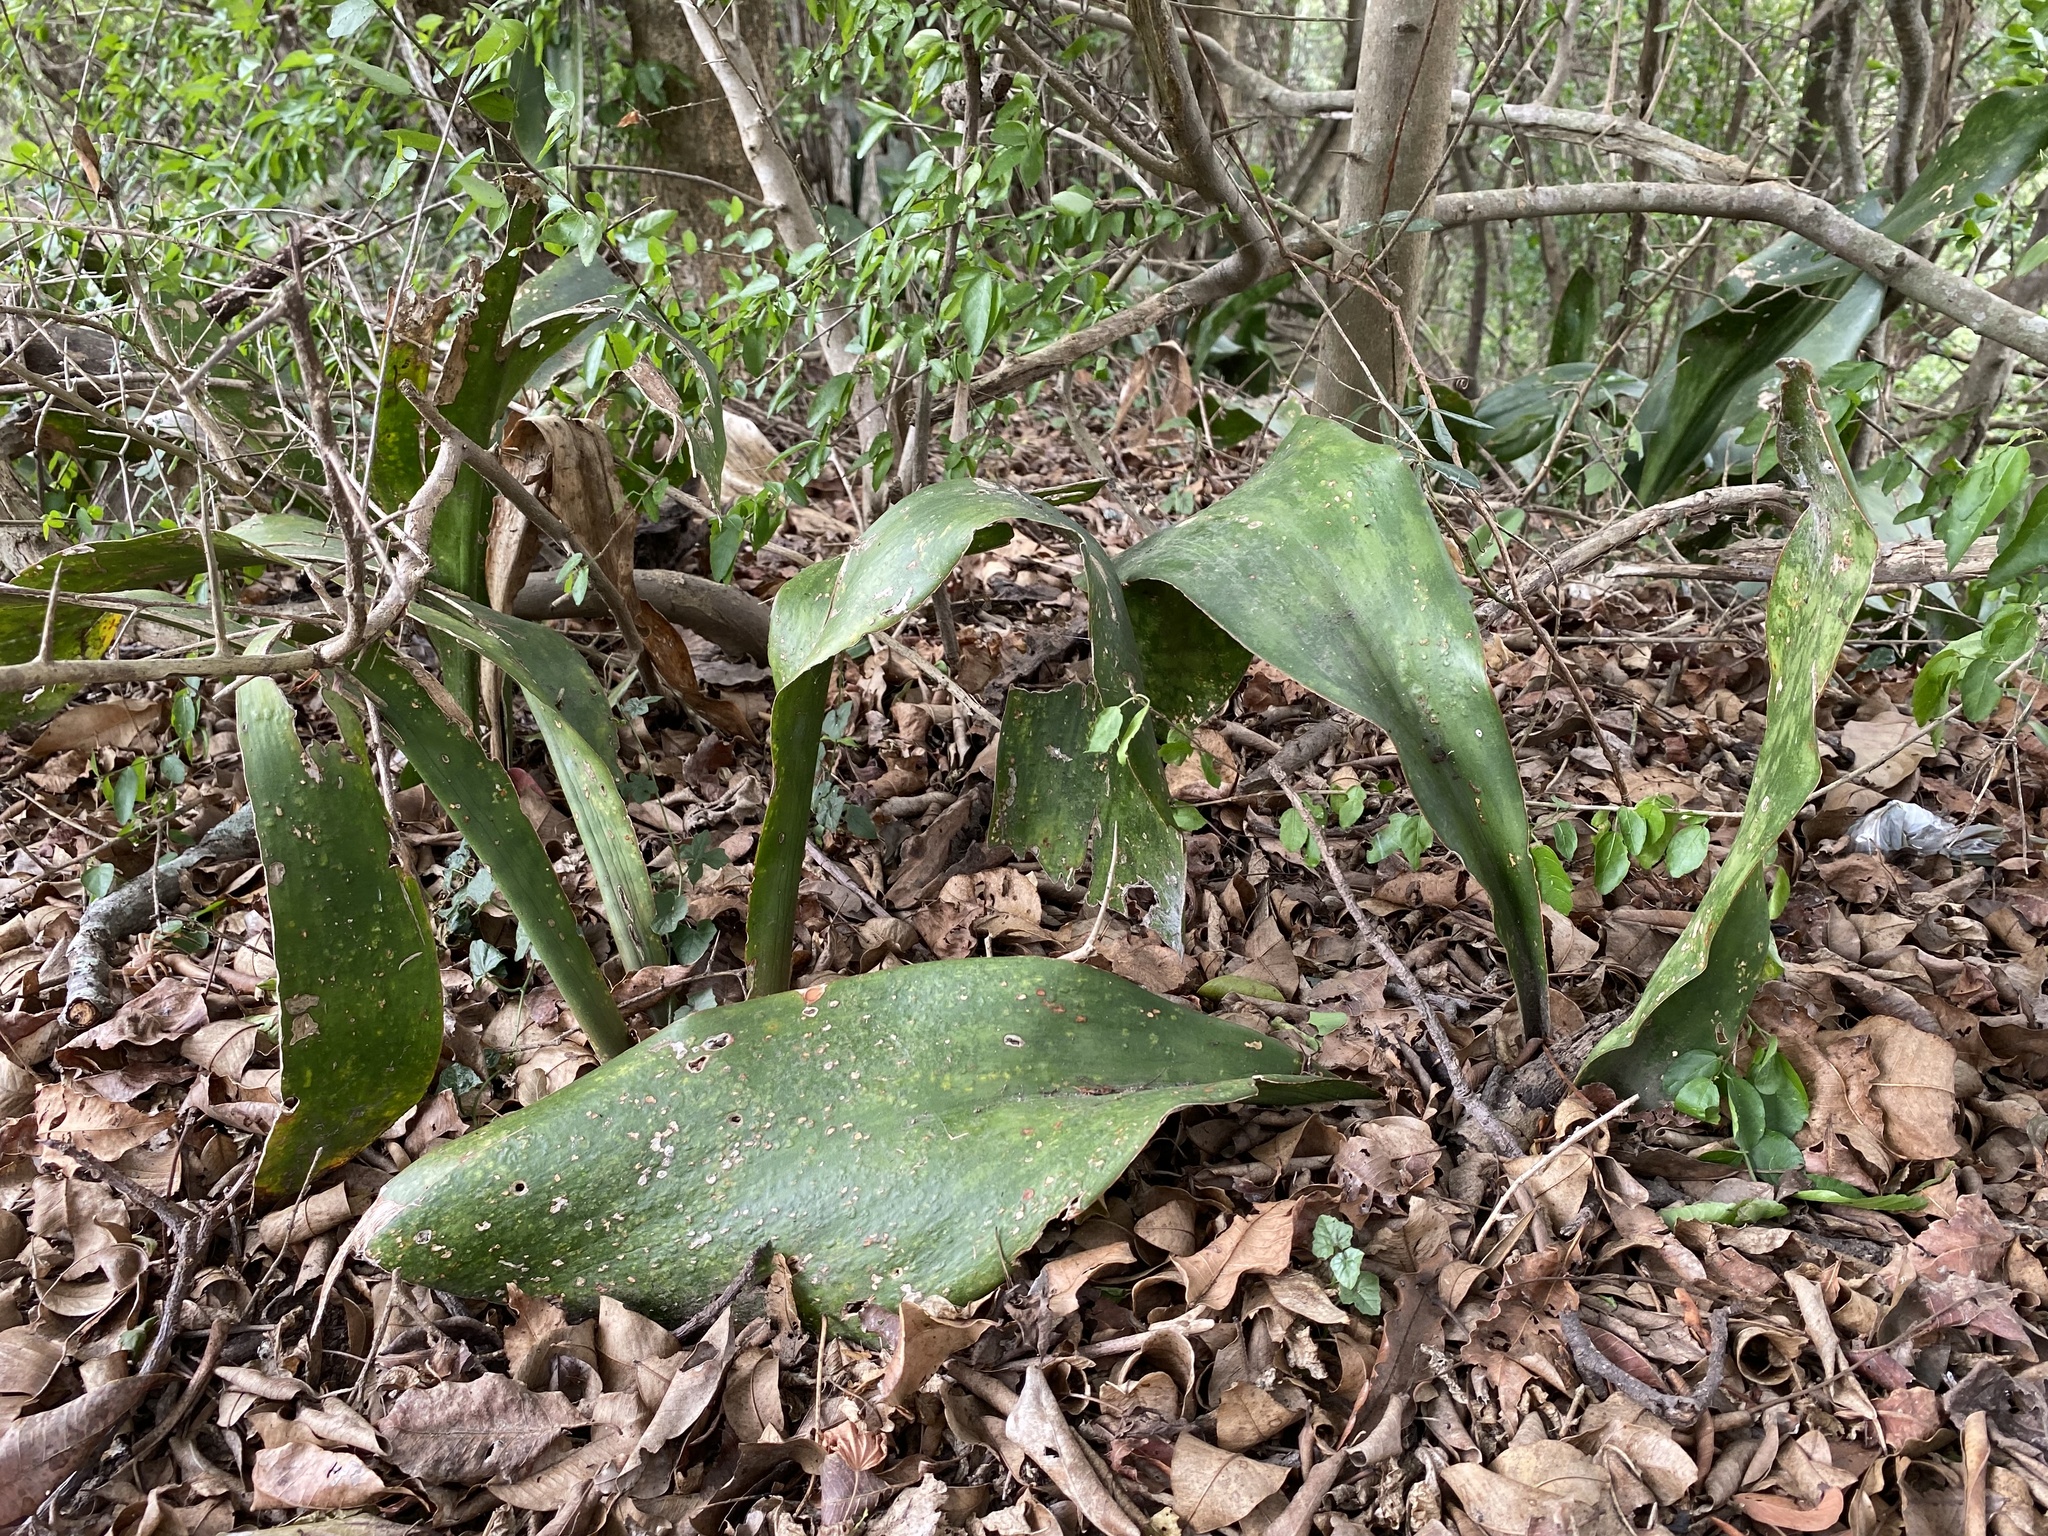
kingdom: Plantae
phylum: Tracheophyta
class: Liliopsida
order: Asparagales
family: Asparagaceae
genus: Dracaena
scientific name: Dracaena hyacinthoides
